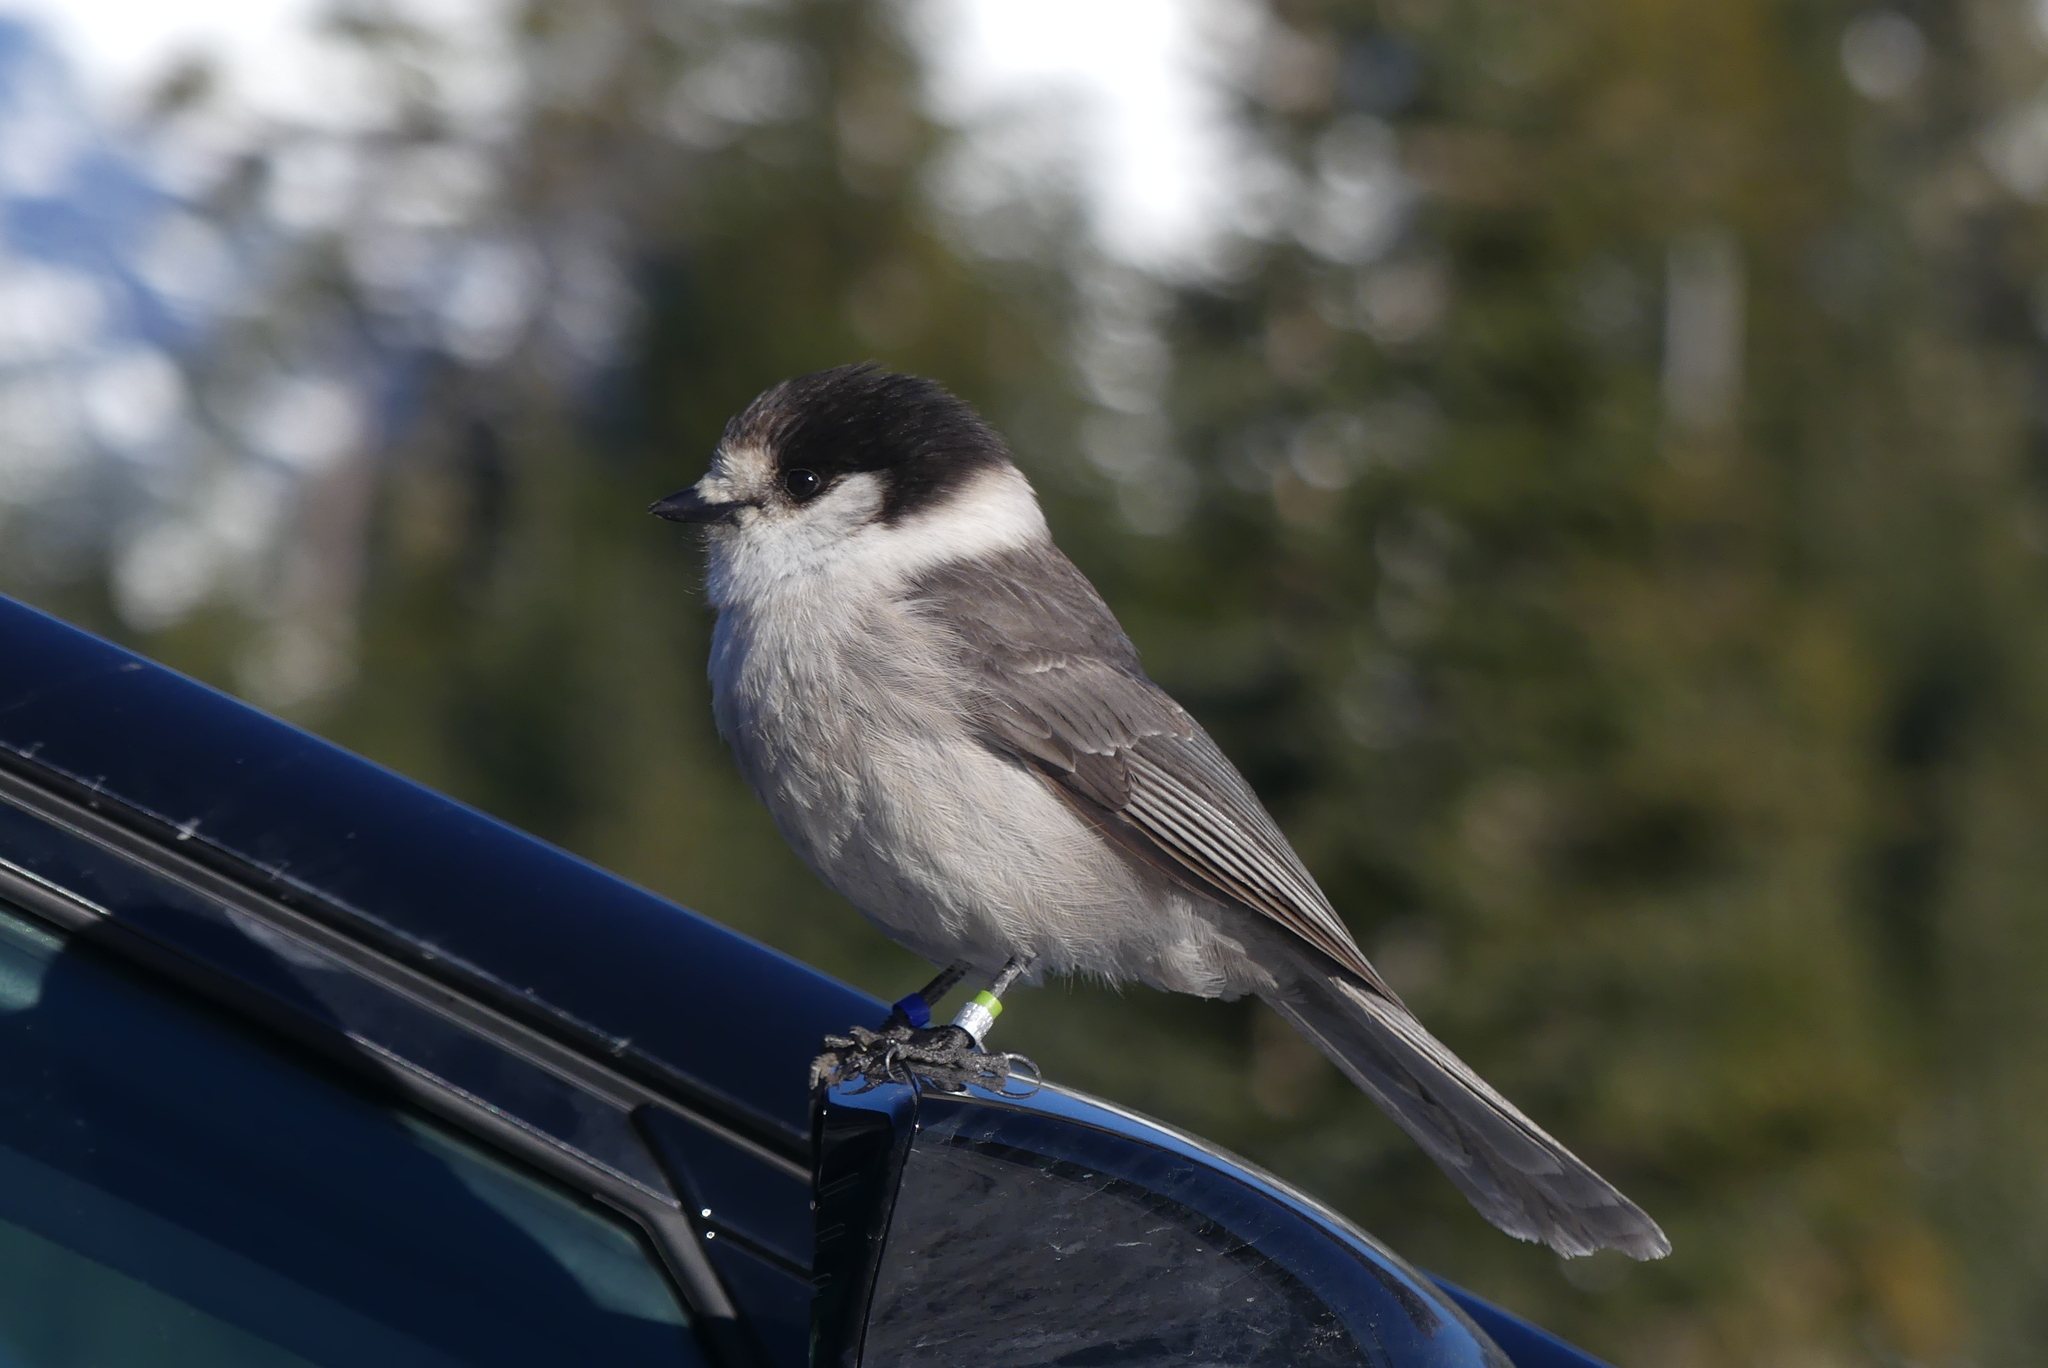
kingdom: Animalia
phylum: Chordata
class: Aves
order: Passeriformes
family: Corvidae
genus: Perisoreus
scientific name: Perisoreus canadensis
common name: Gray jay
